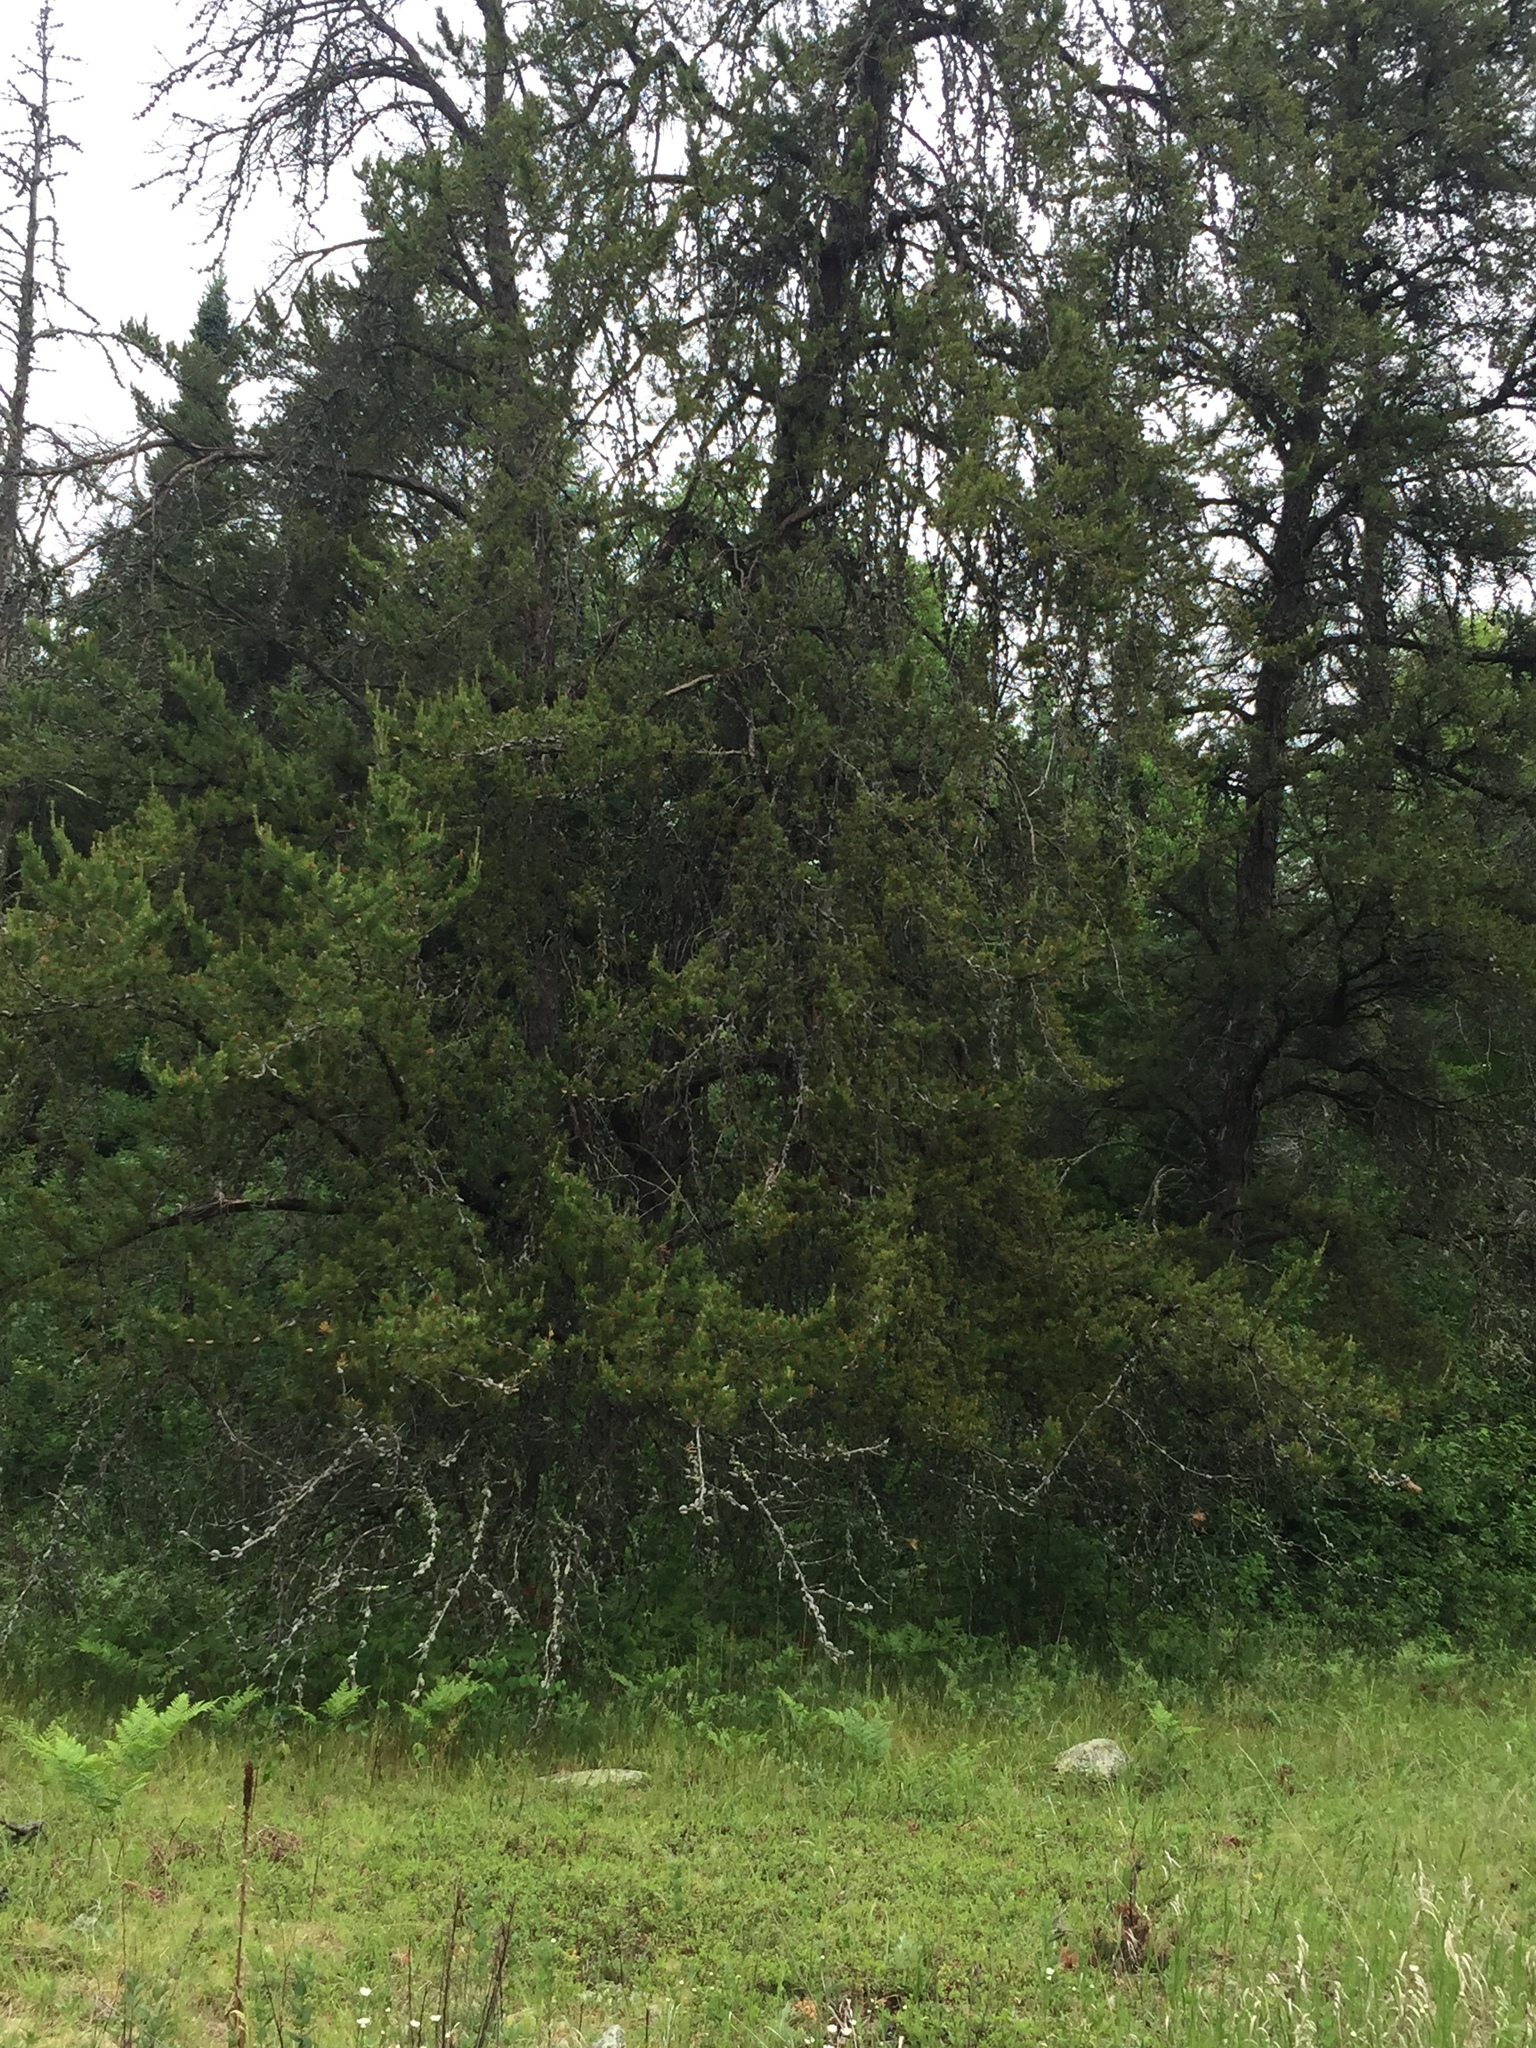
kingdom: Plantae
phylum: Tracheophyta
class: Pinopsida
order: Pinales
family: Pinaceae
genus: Pinus
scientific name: Pinus banksiana
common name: Jack pine
